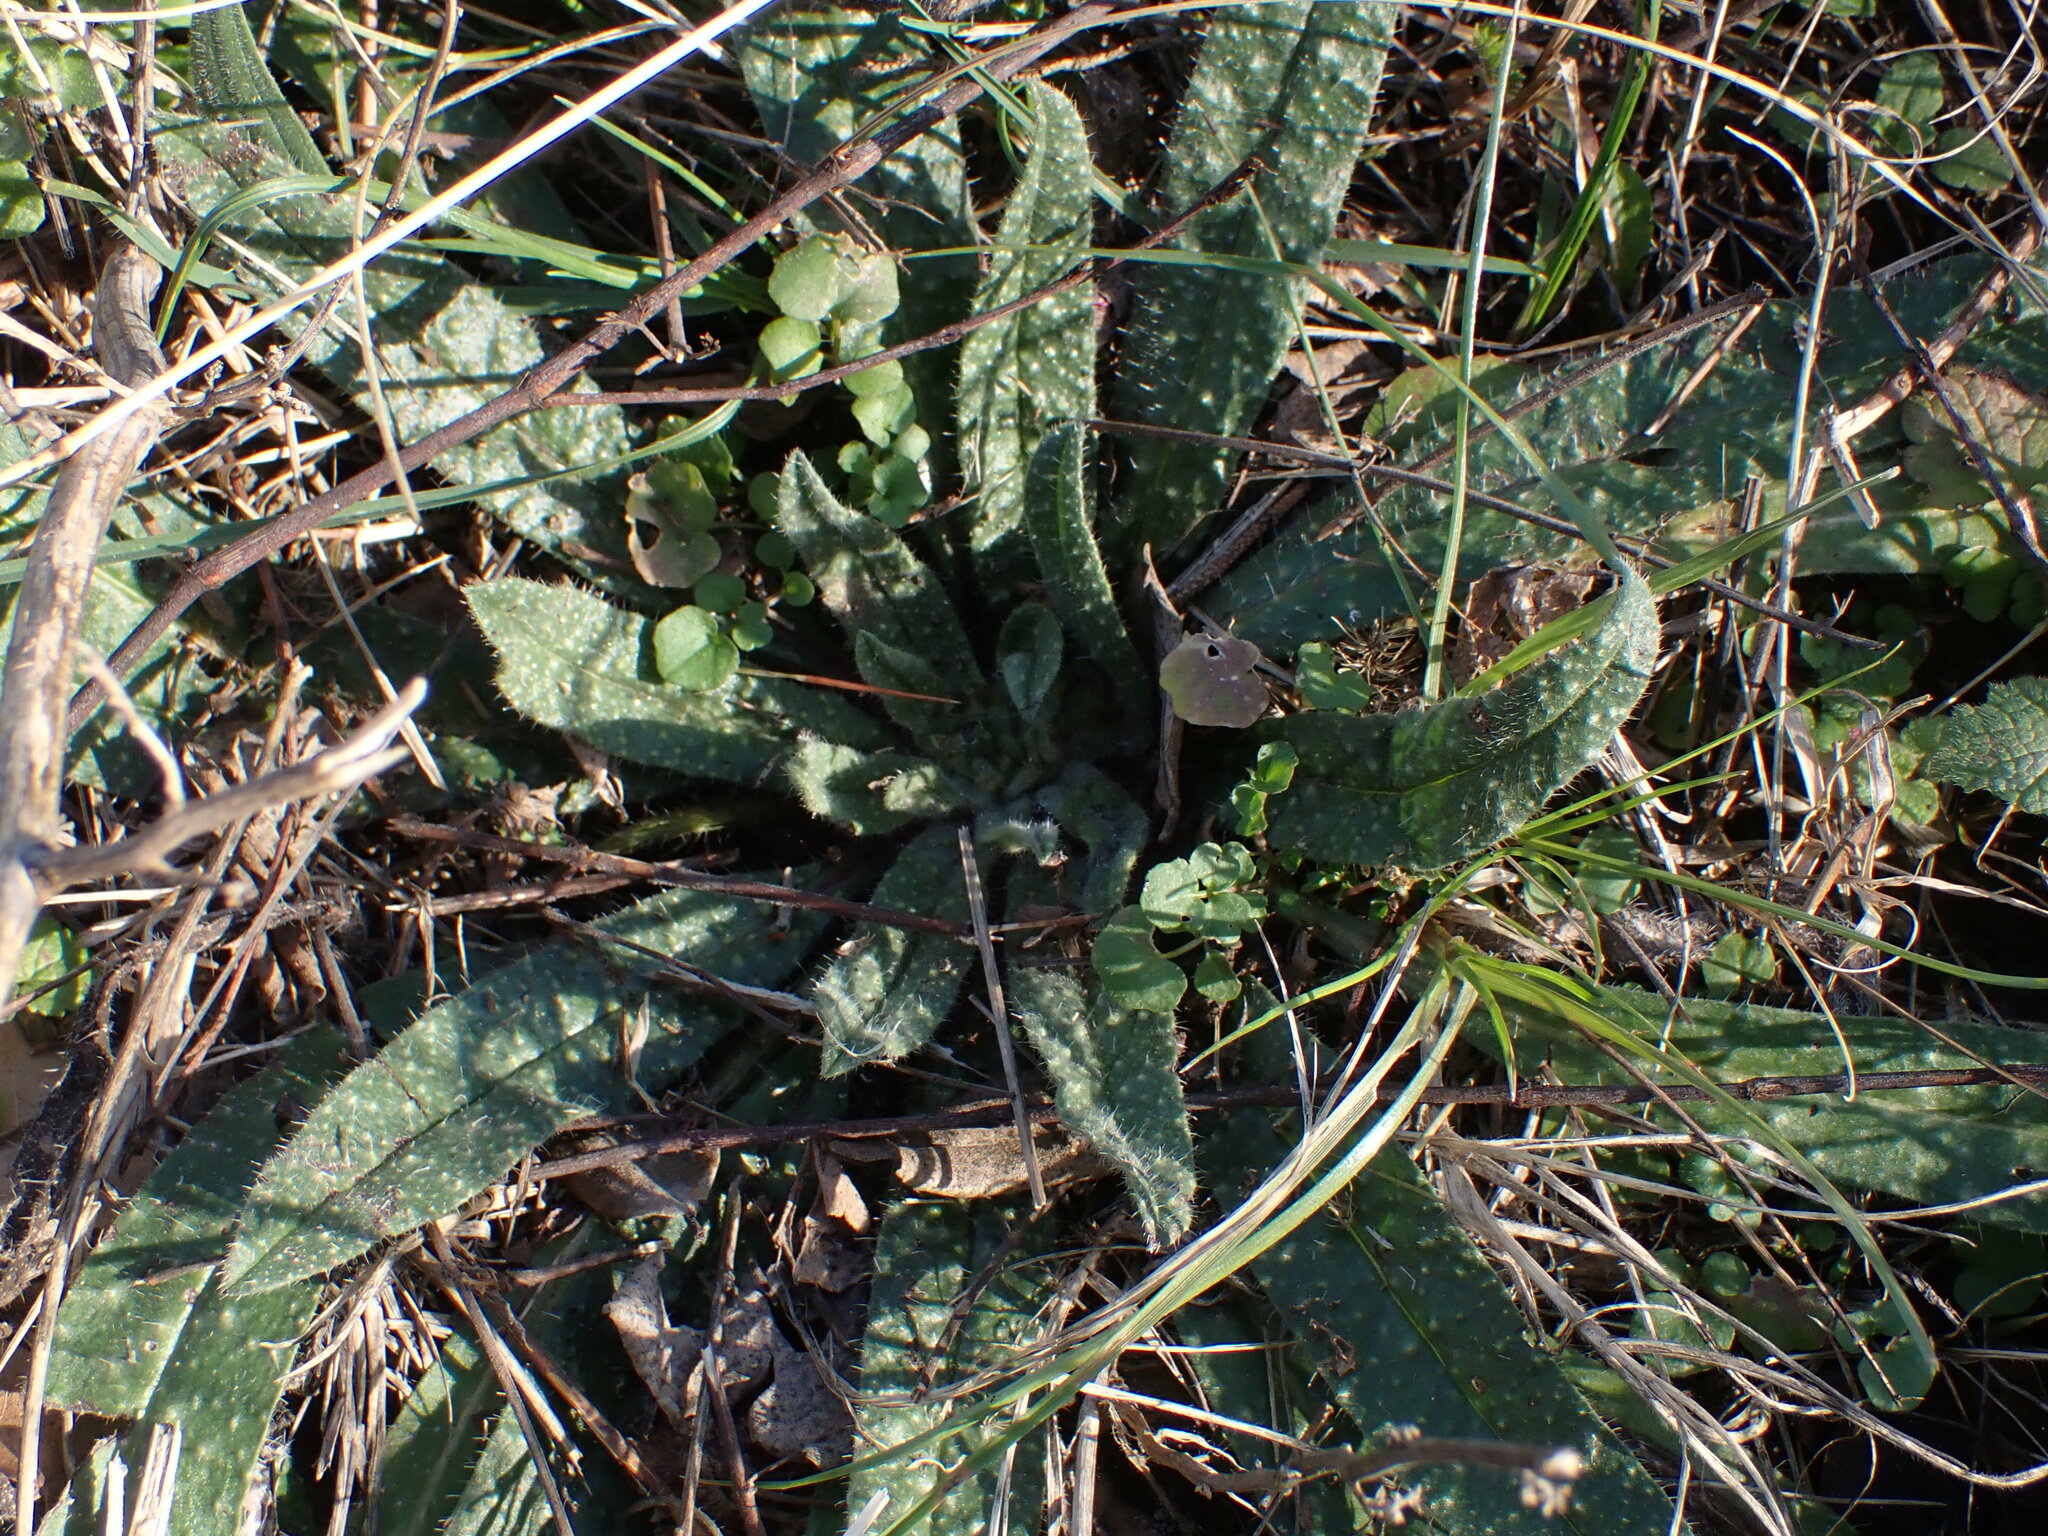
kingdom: Plantae
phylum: Tracheophyta
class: Magnoliopsida
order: Boraginales
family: Boraginaceae
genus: Echium
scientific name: Echium vulgare
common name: Common viper's bugloss
